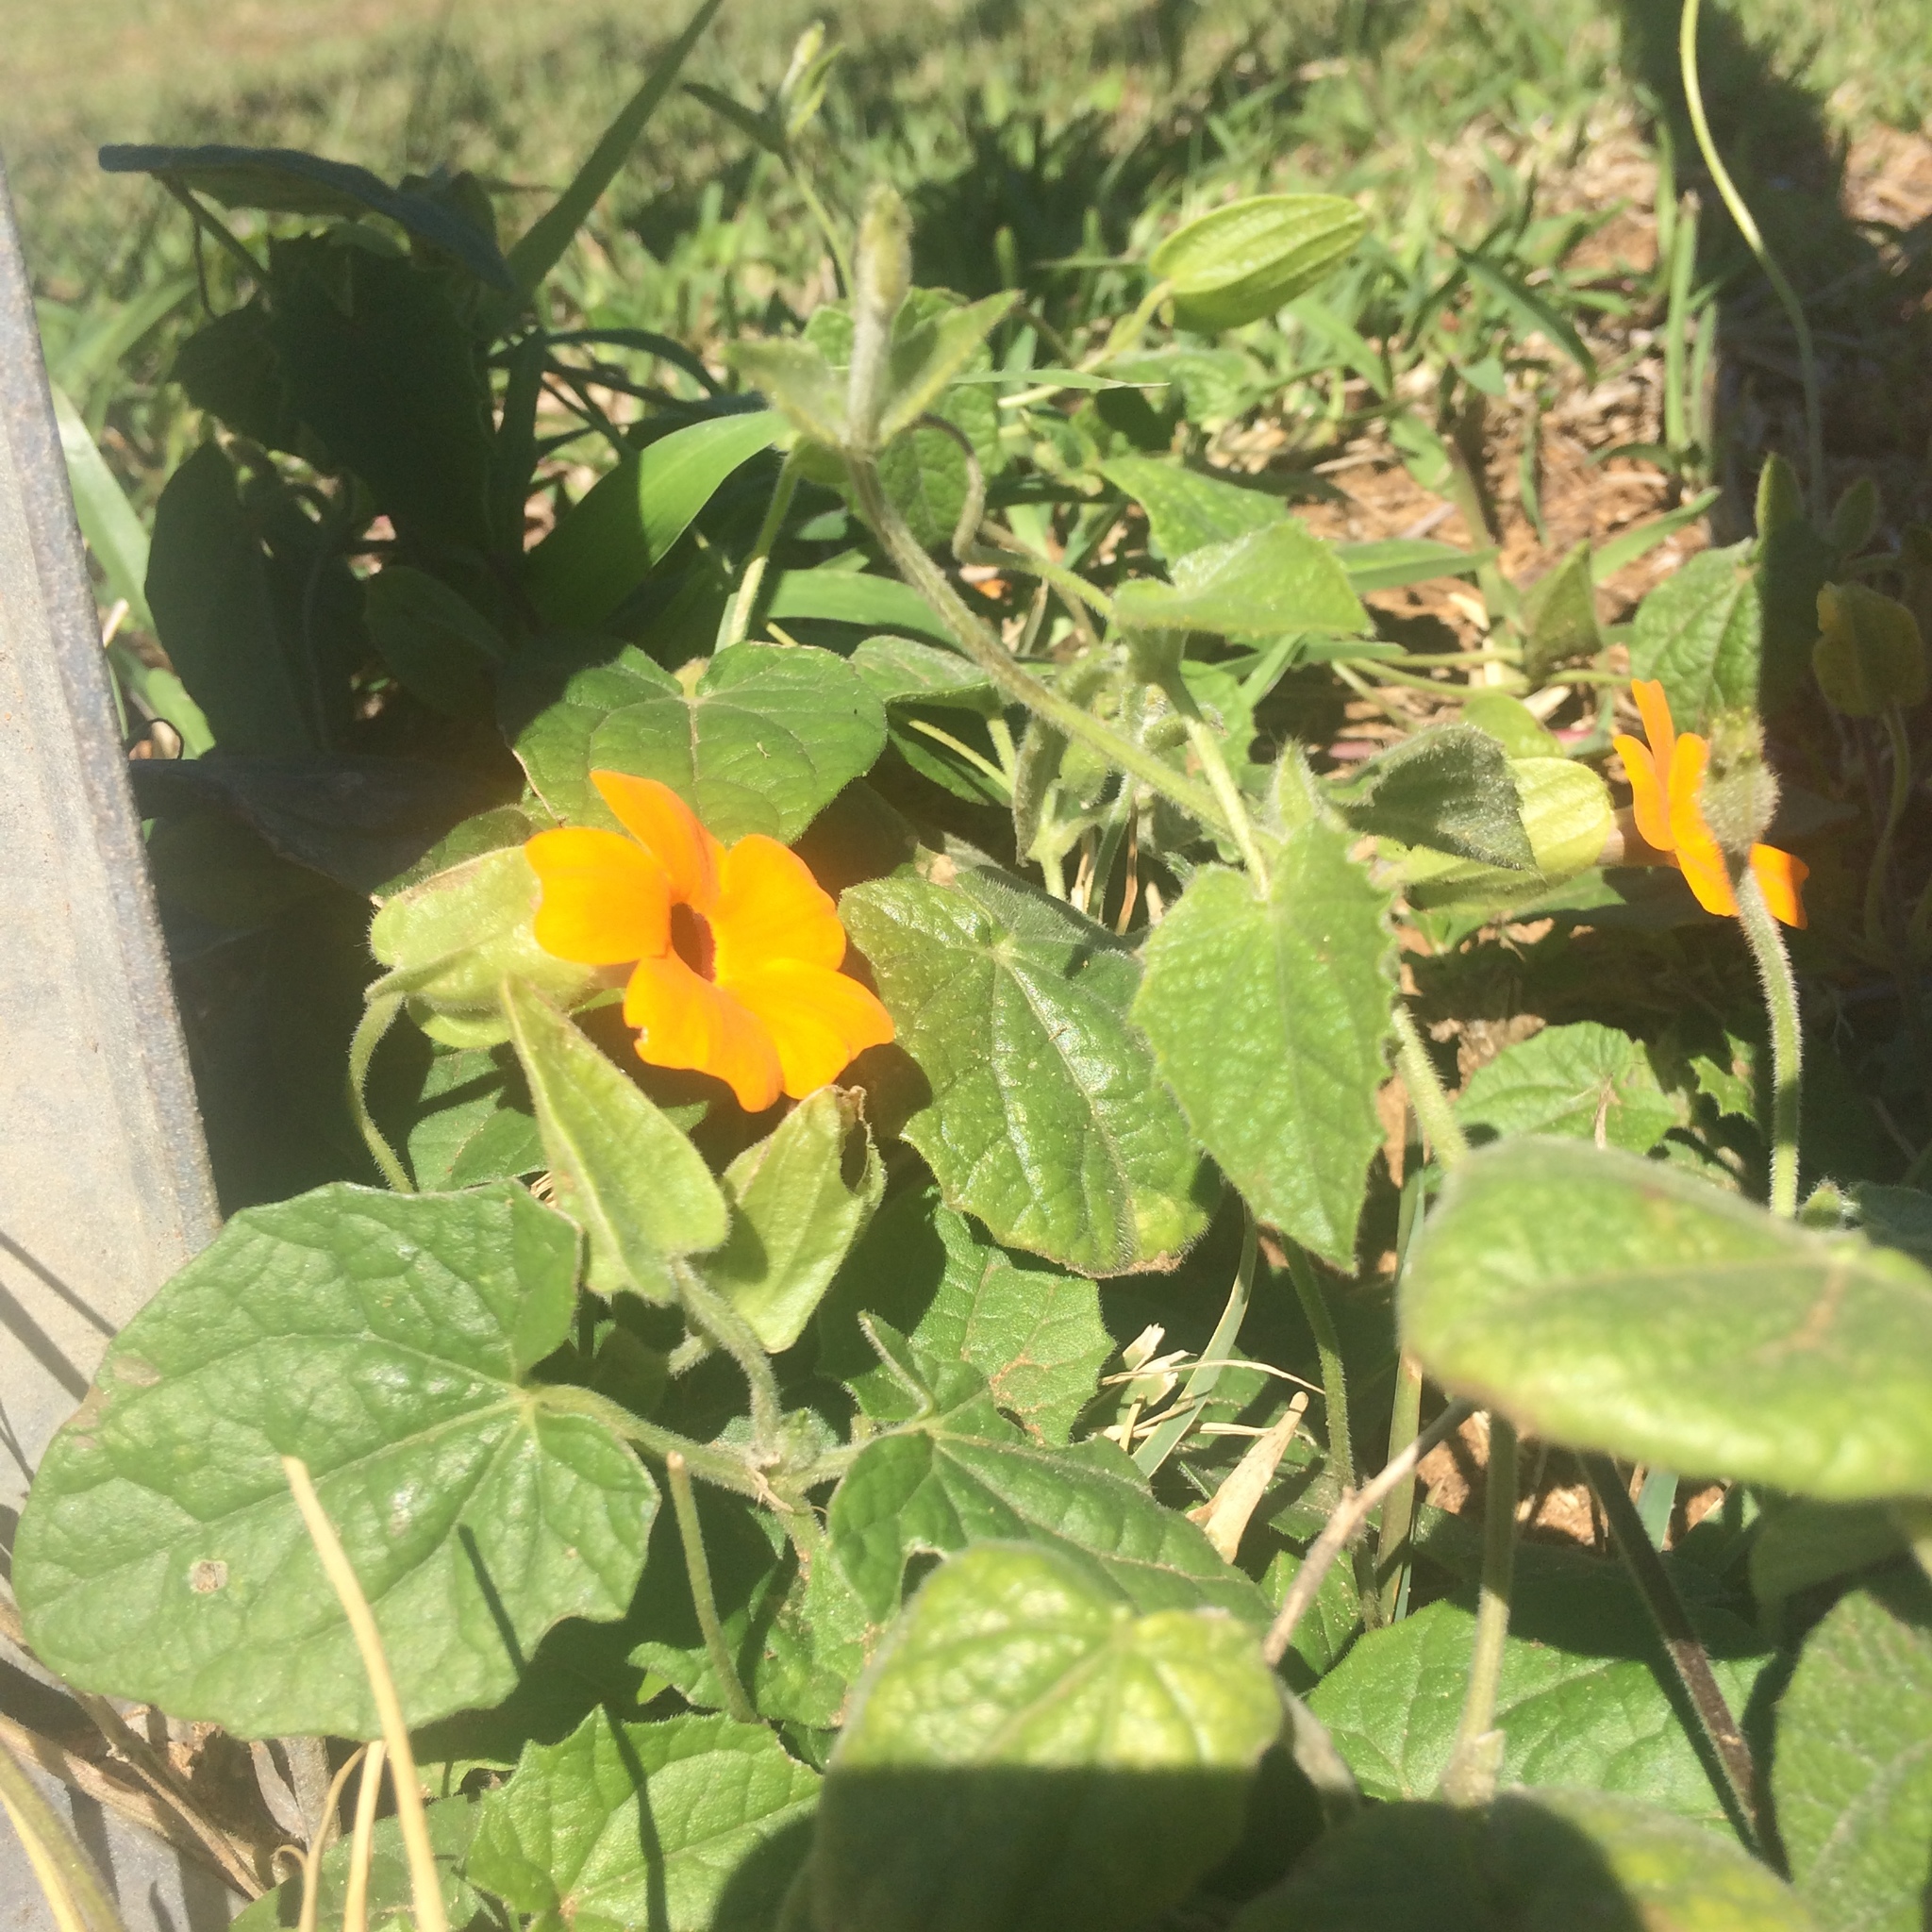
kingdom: Plantae
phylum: Tracheophyta
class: Magnoliopsida
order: Lamiales
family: Acanthaceae
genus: Thunbergia
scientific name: Thunbergia alata
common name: Blackeyed susan vine
